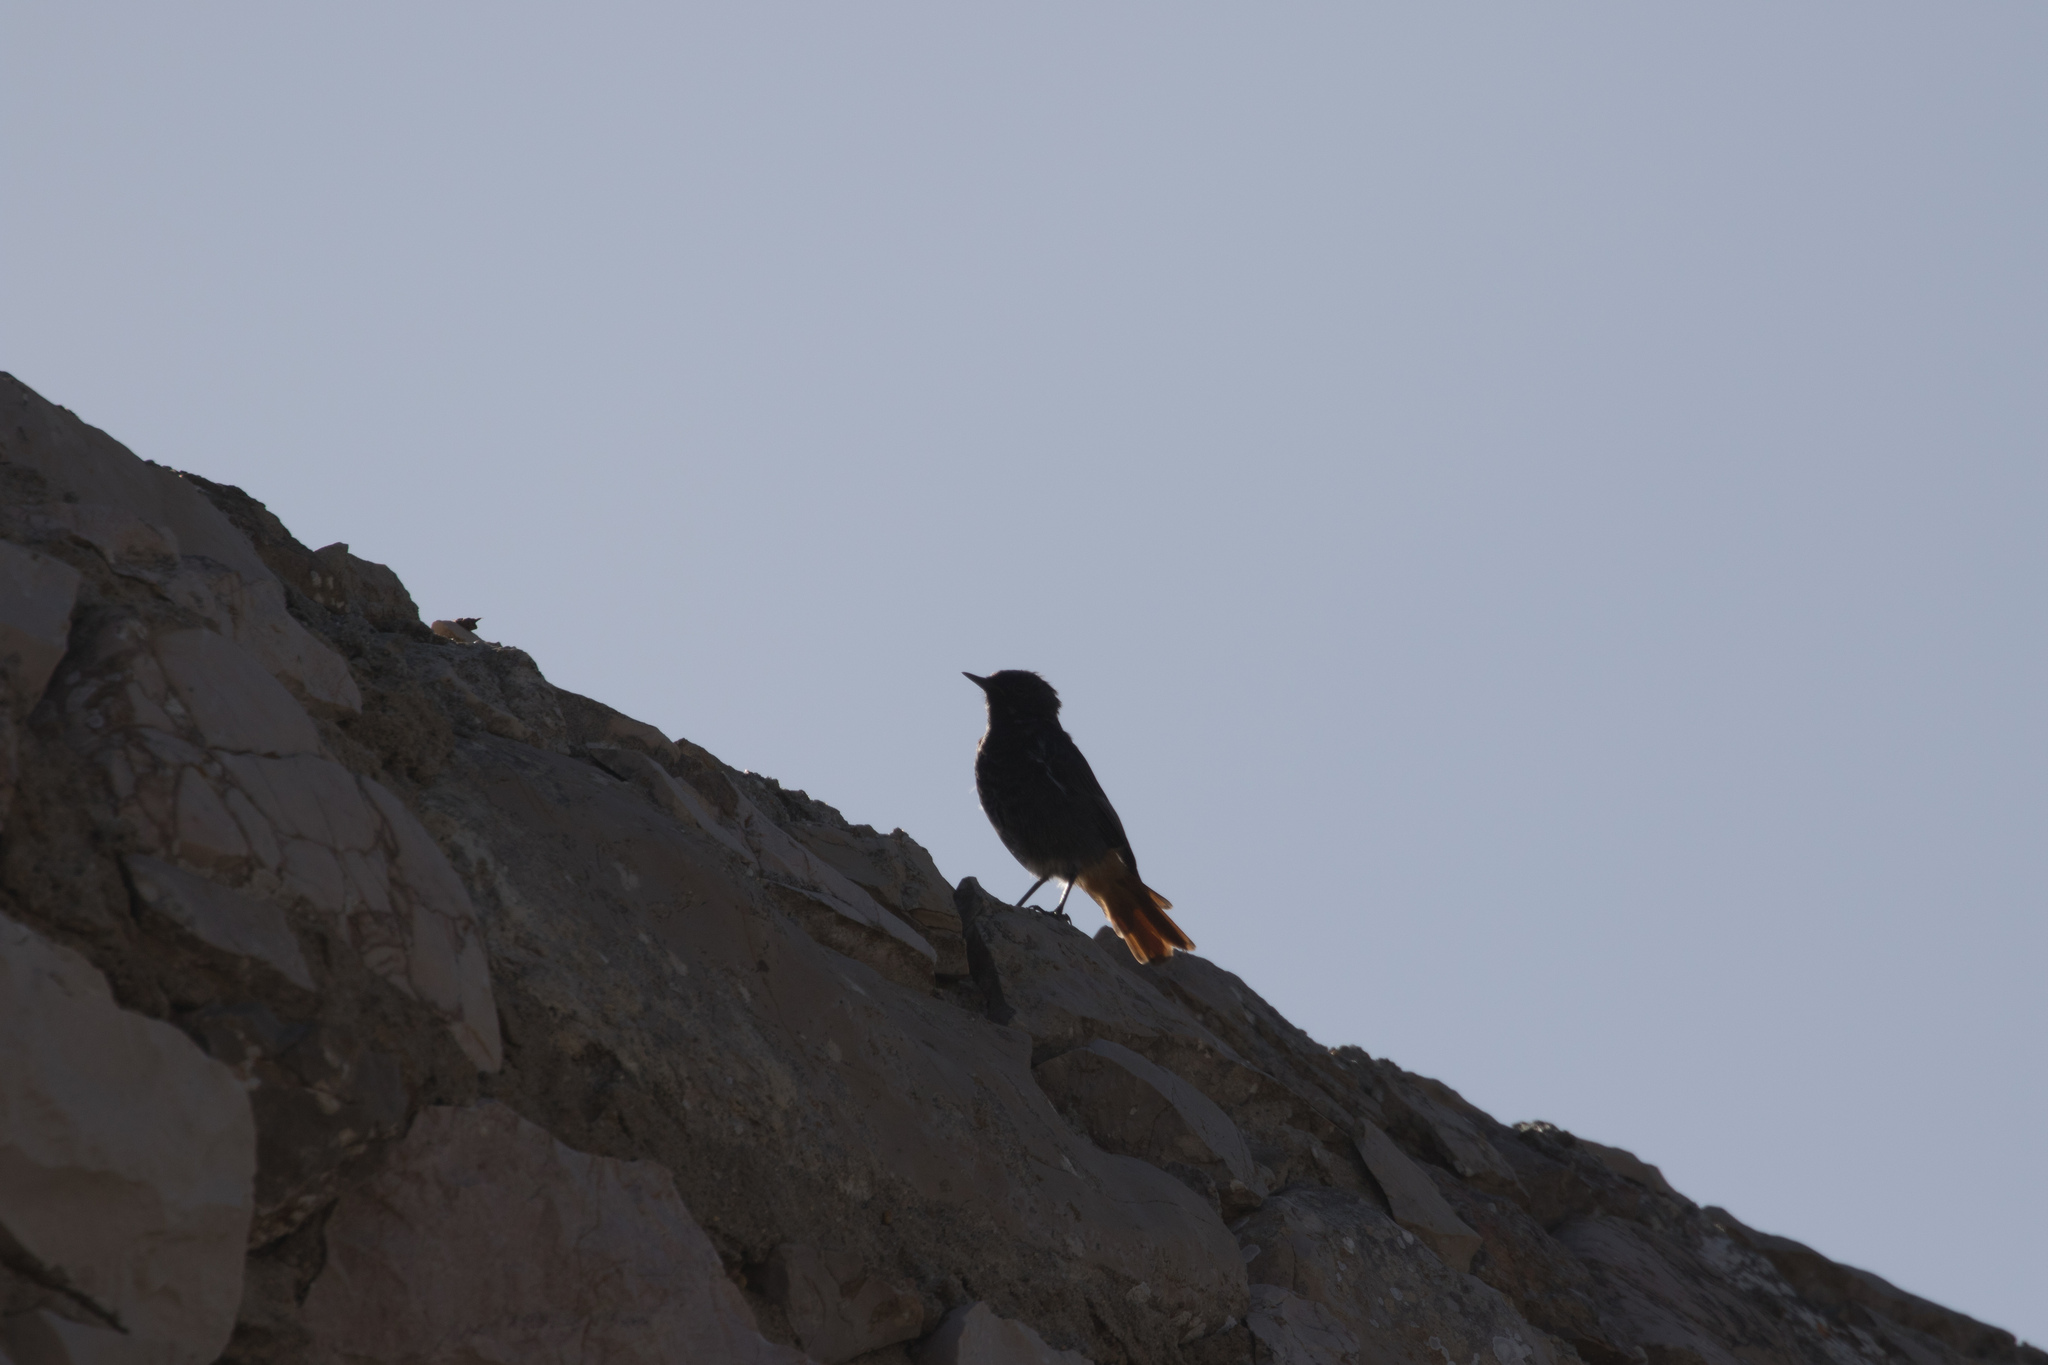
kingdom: Animalia
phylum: Chordata
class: Aves
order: Passeriformes
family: Muscicapidae
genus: Phoenicurus
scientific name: Phoenicurus ochruros
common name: Black redstart
